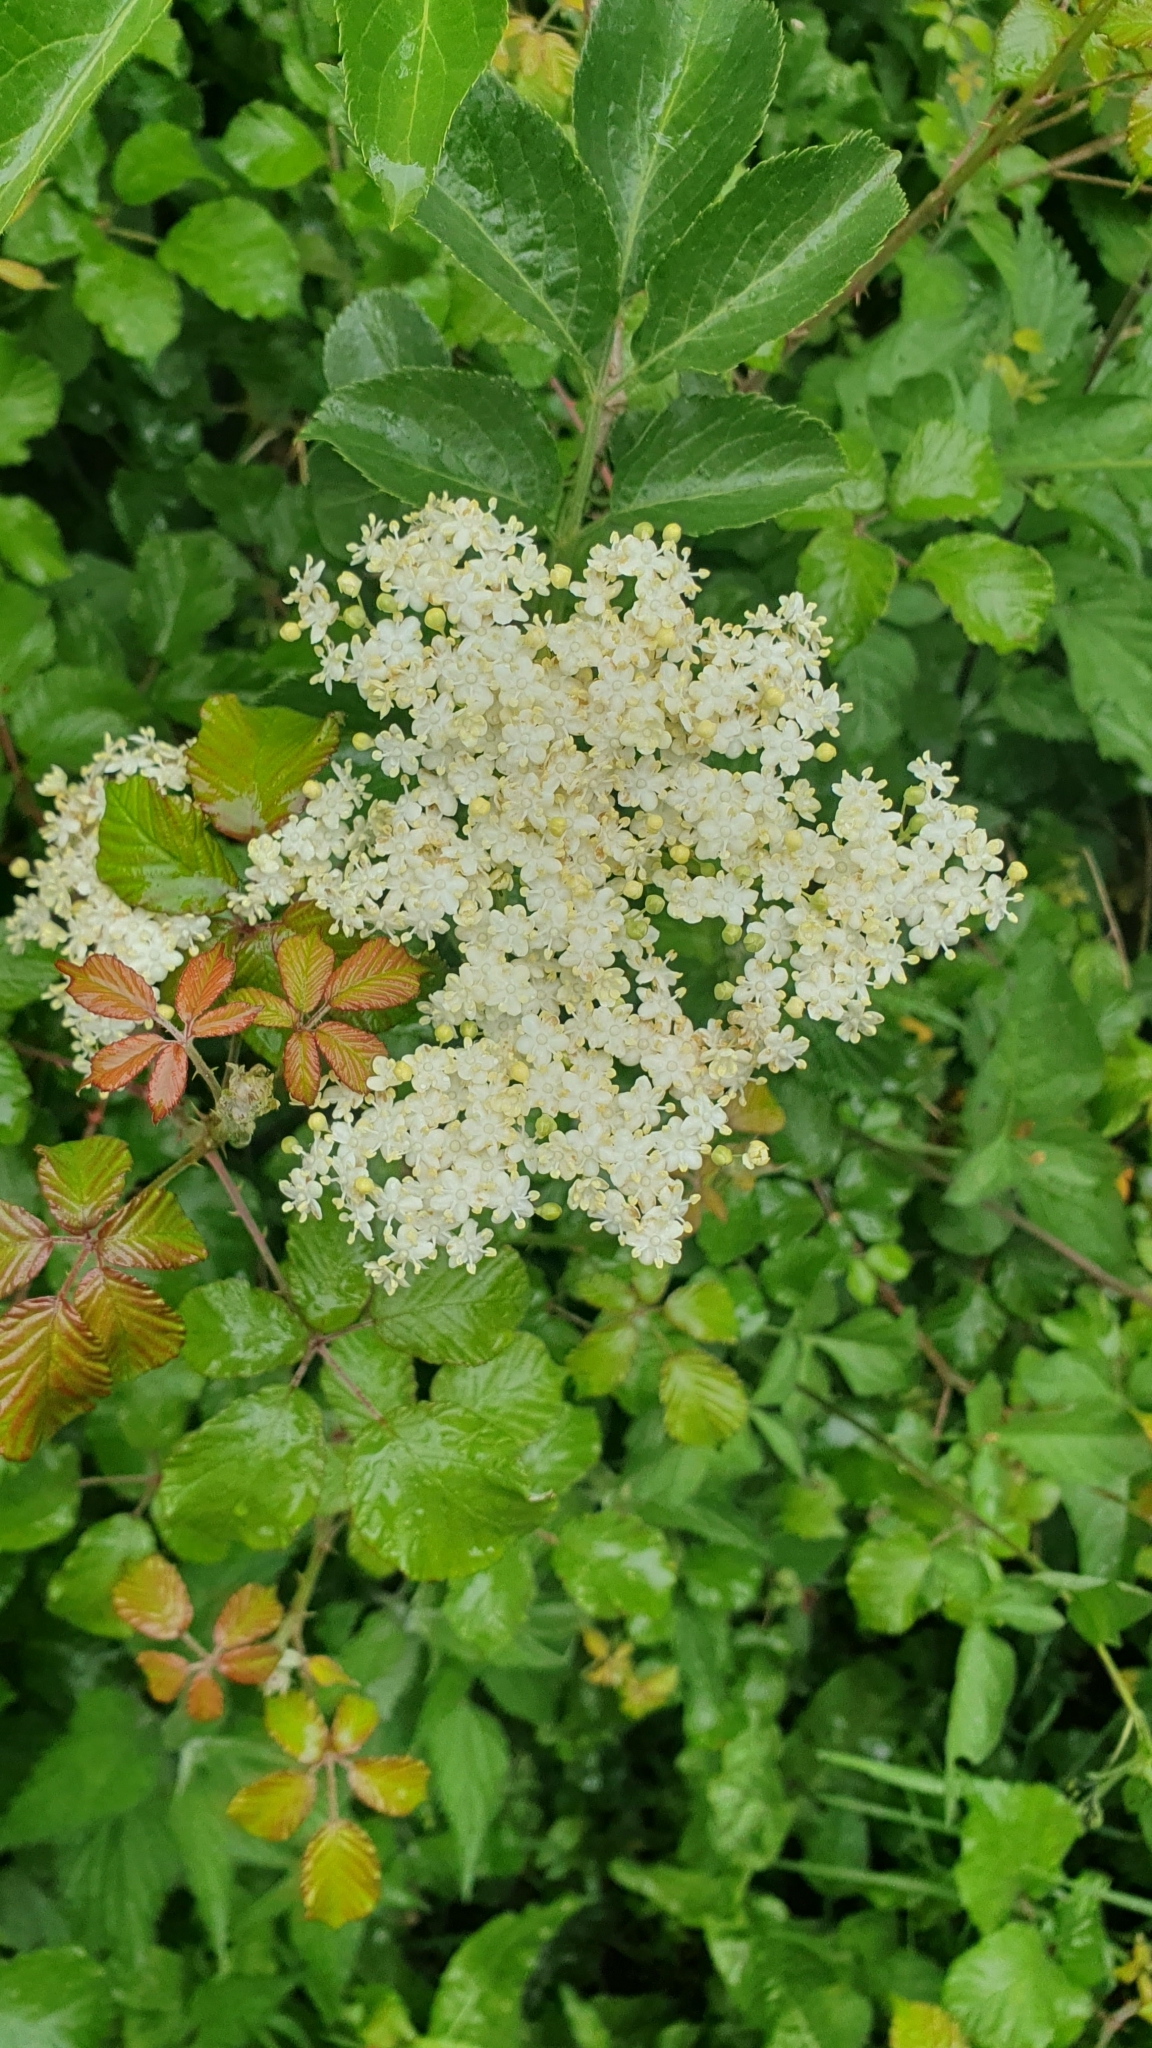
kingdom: Plantae
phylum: Tracheophyta
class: Magnoliopsida
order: Dipsacales
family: Viburnaceae
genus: Sambucus
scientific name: Sambucus nigra
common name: Elder
